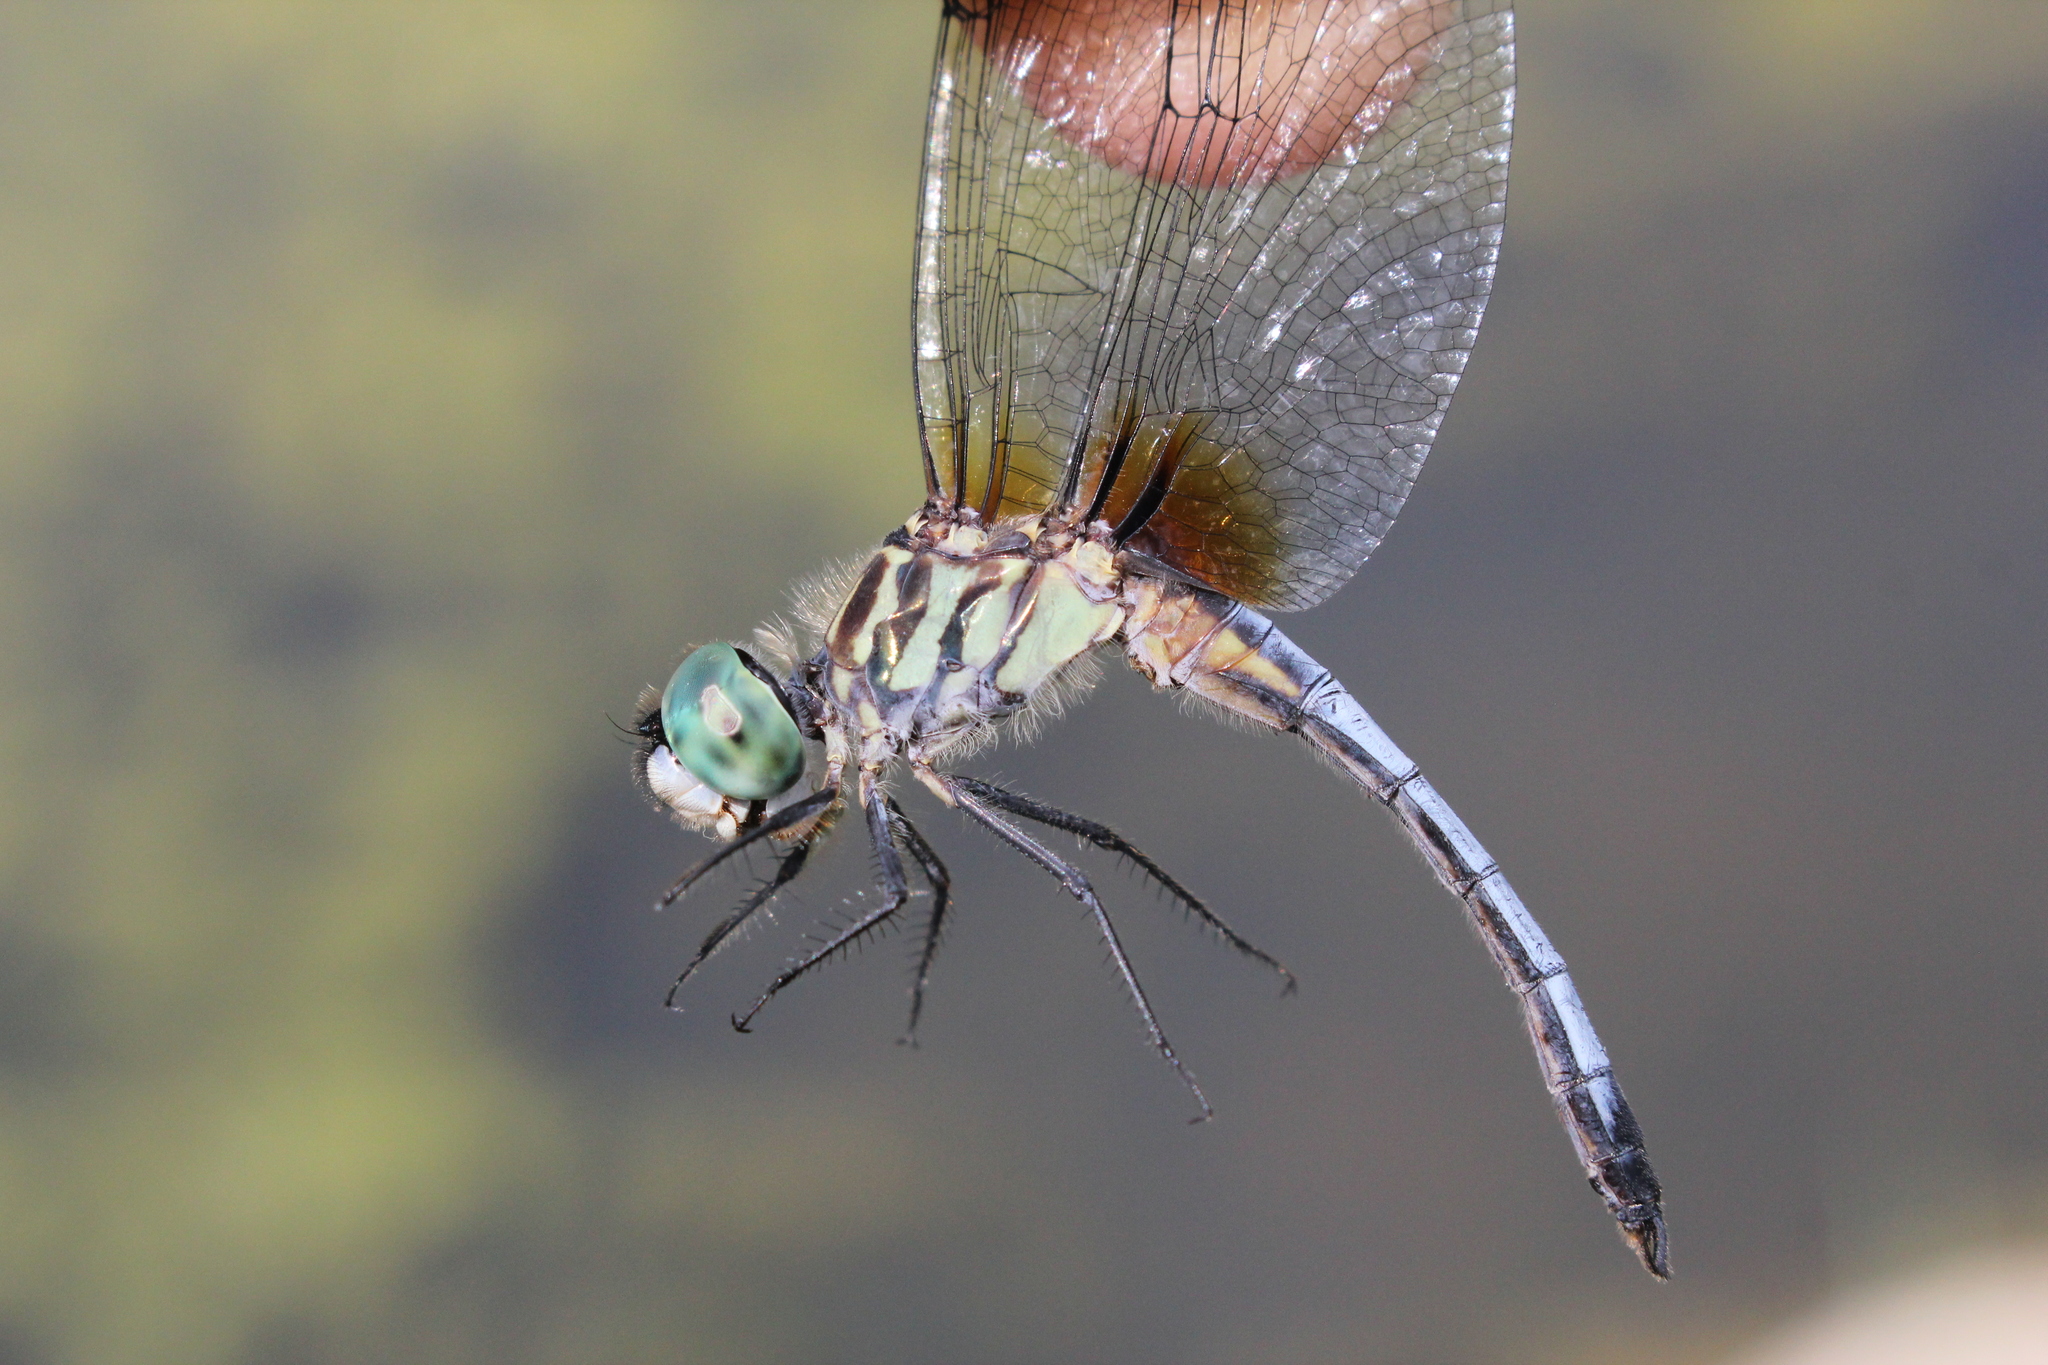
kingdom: Animalia
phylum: Arthropoda
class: Insecta
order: Odonata
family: Libellulidae
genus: Pachydiplax
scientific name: Pachydiplax longipennis
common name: Blue dasher
